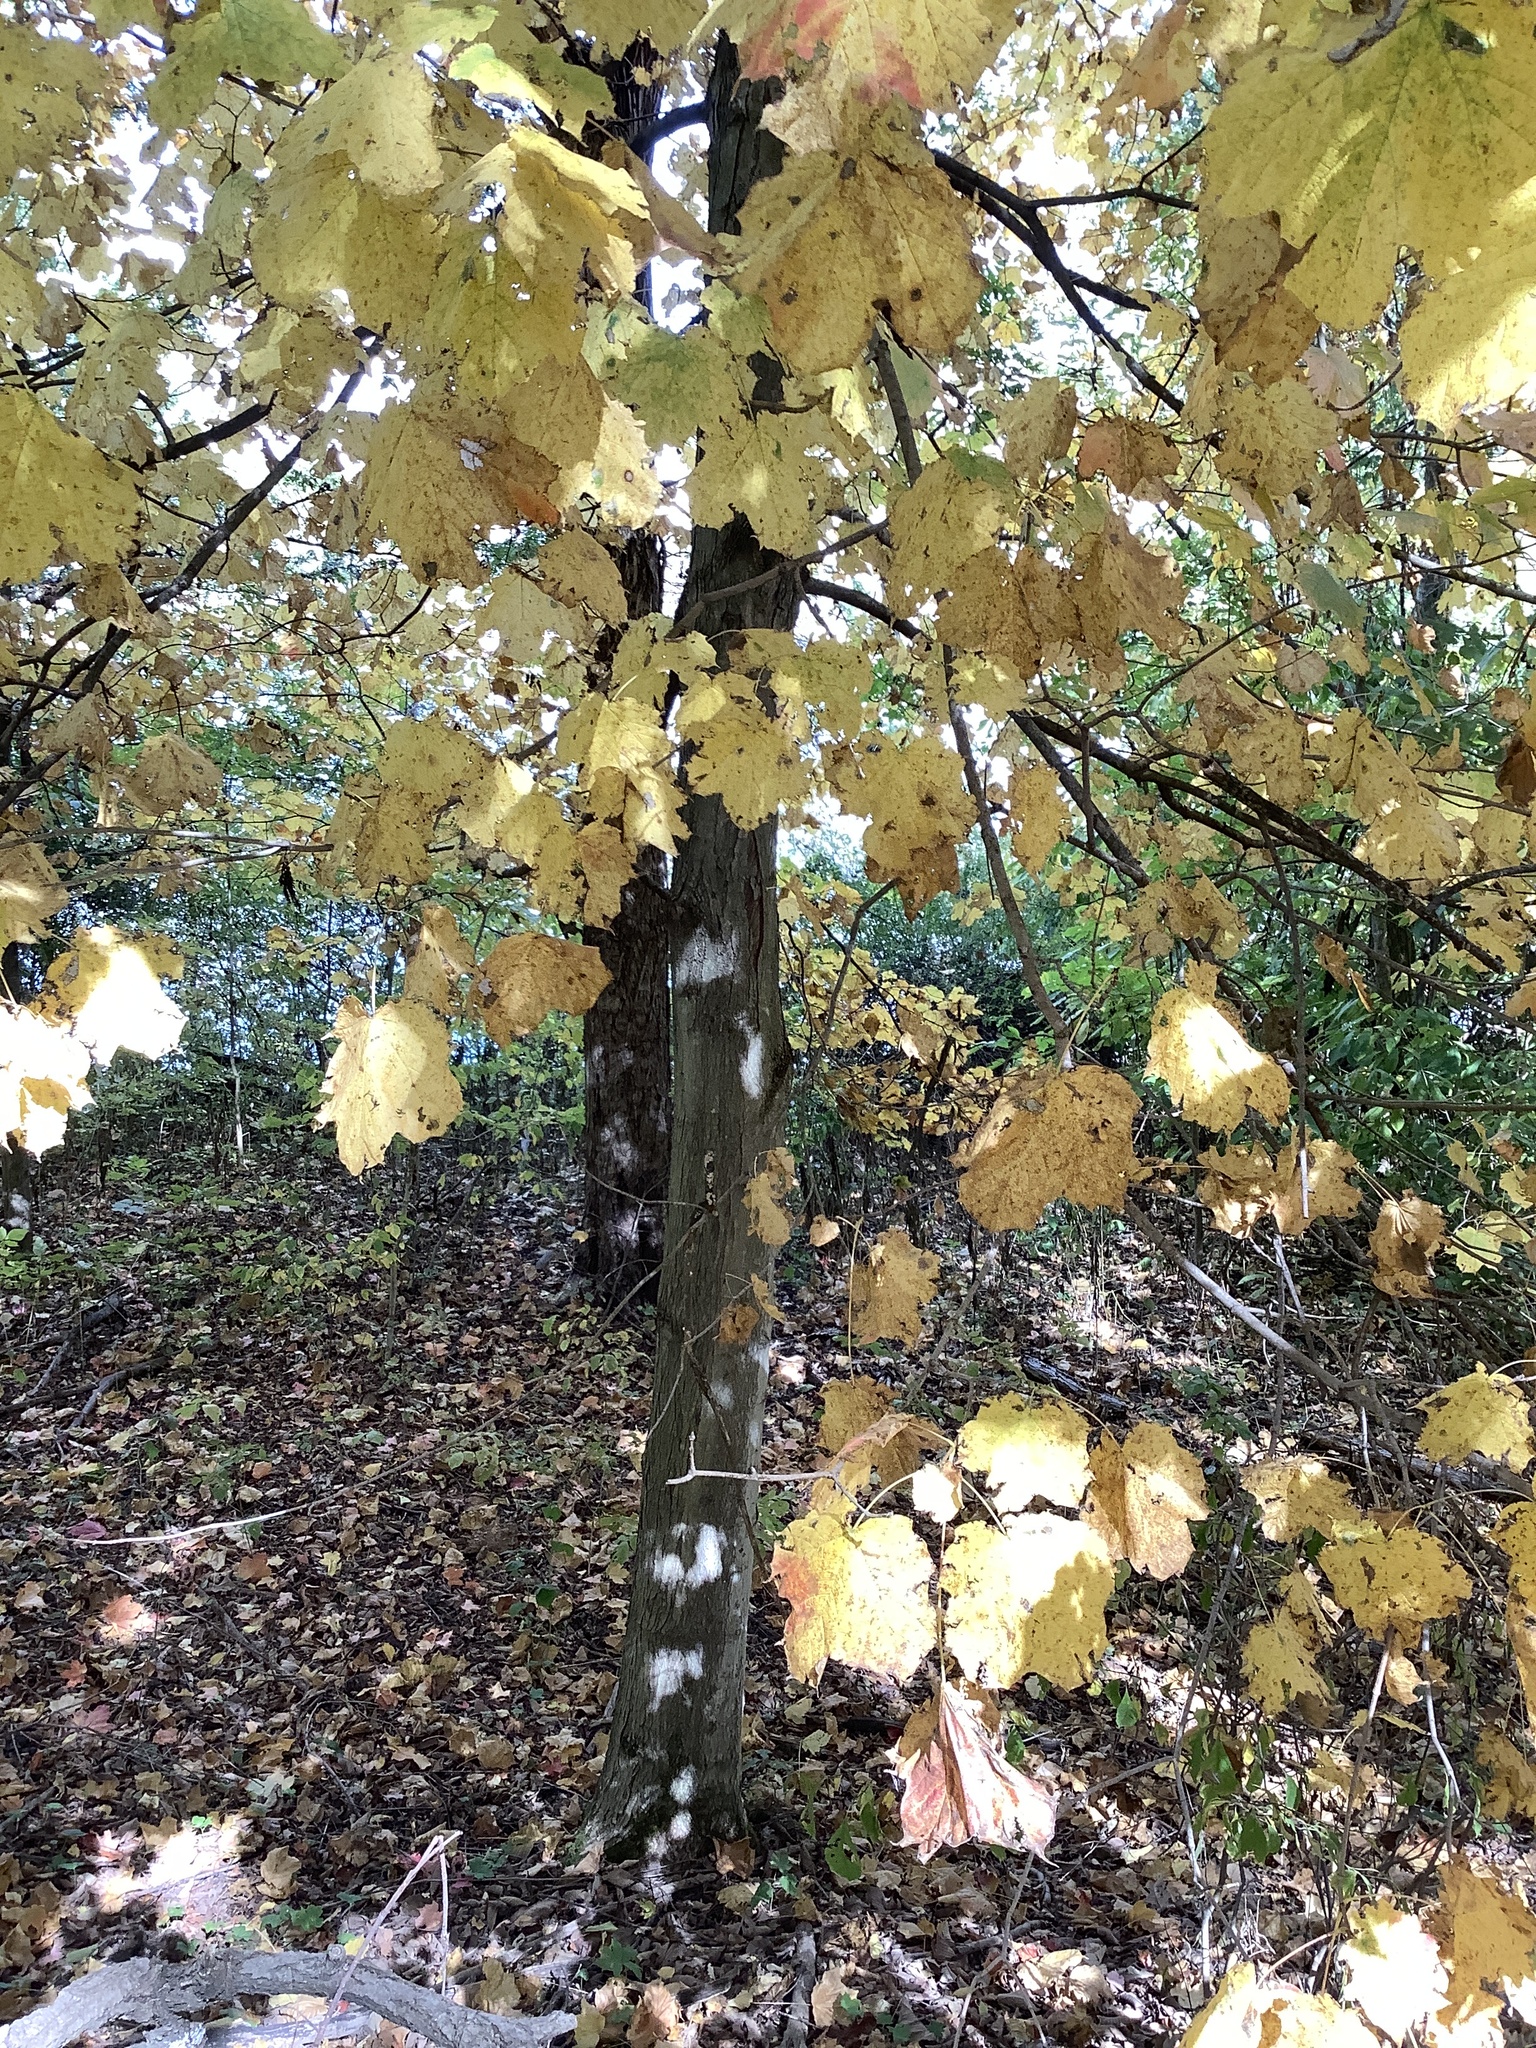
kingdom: Plantae
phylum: Tracheophyta
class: Magnoliopsida
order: Sapindales
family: Sapindaceae
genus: Acer
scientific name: Acer nigrum
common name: Black maple
